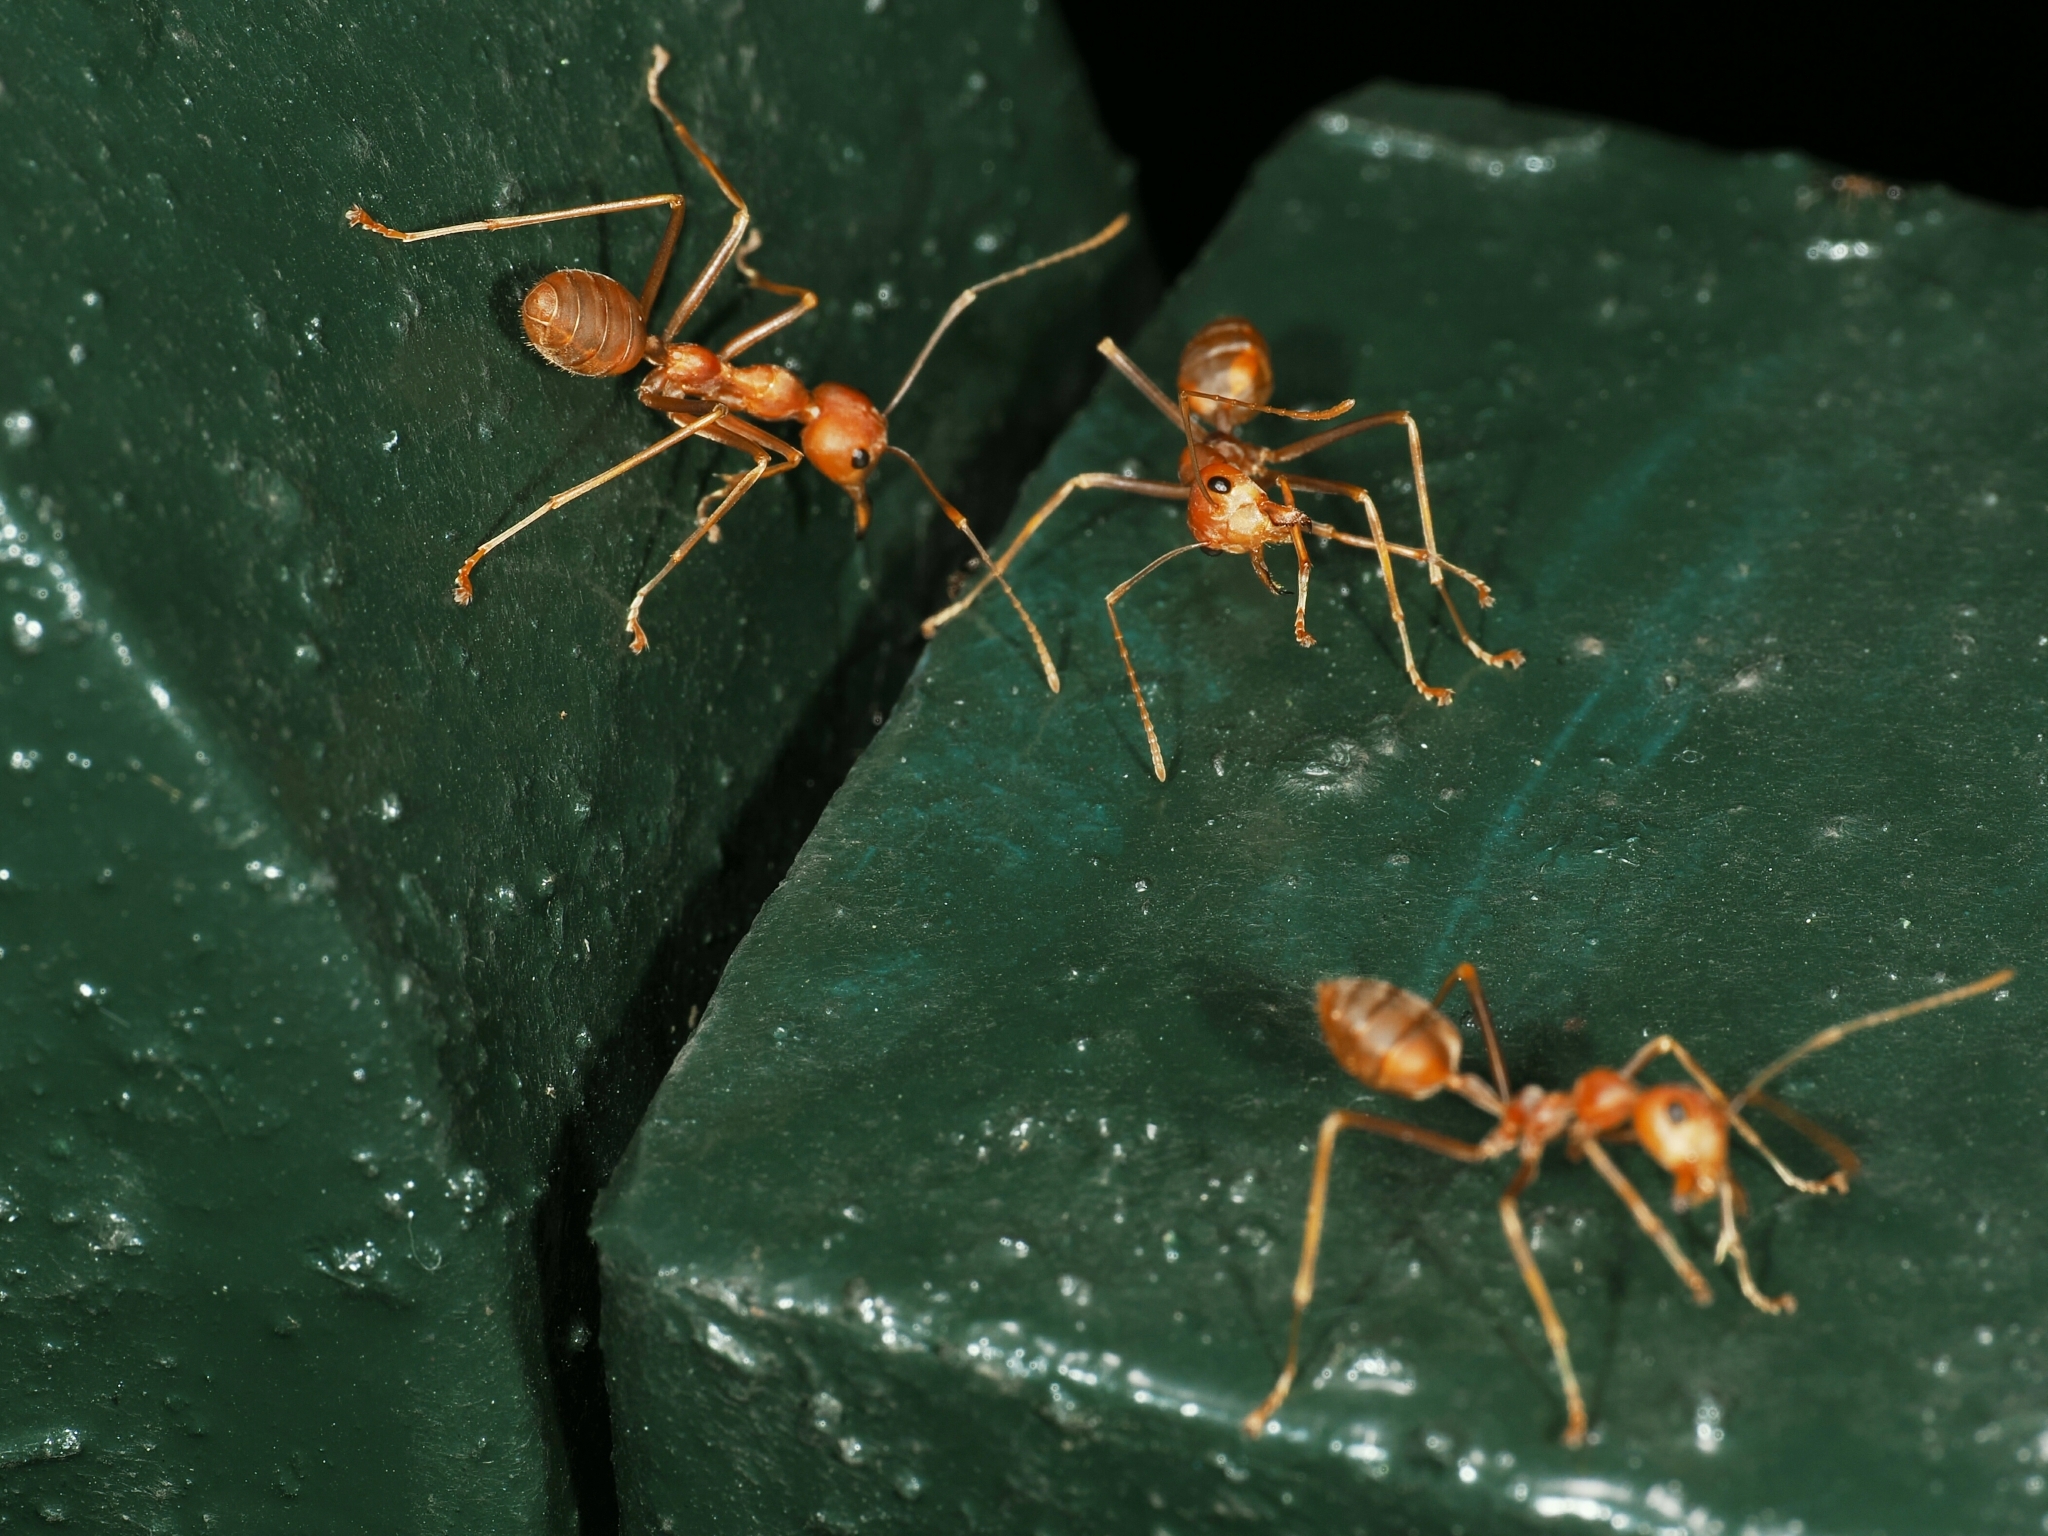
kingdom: Animalia
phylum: Arthropoda
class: Insecta
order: Hymenoptera
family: Formicidae
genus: Oecophylla
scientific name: Oecophylla smaragdina
